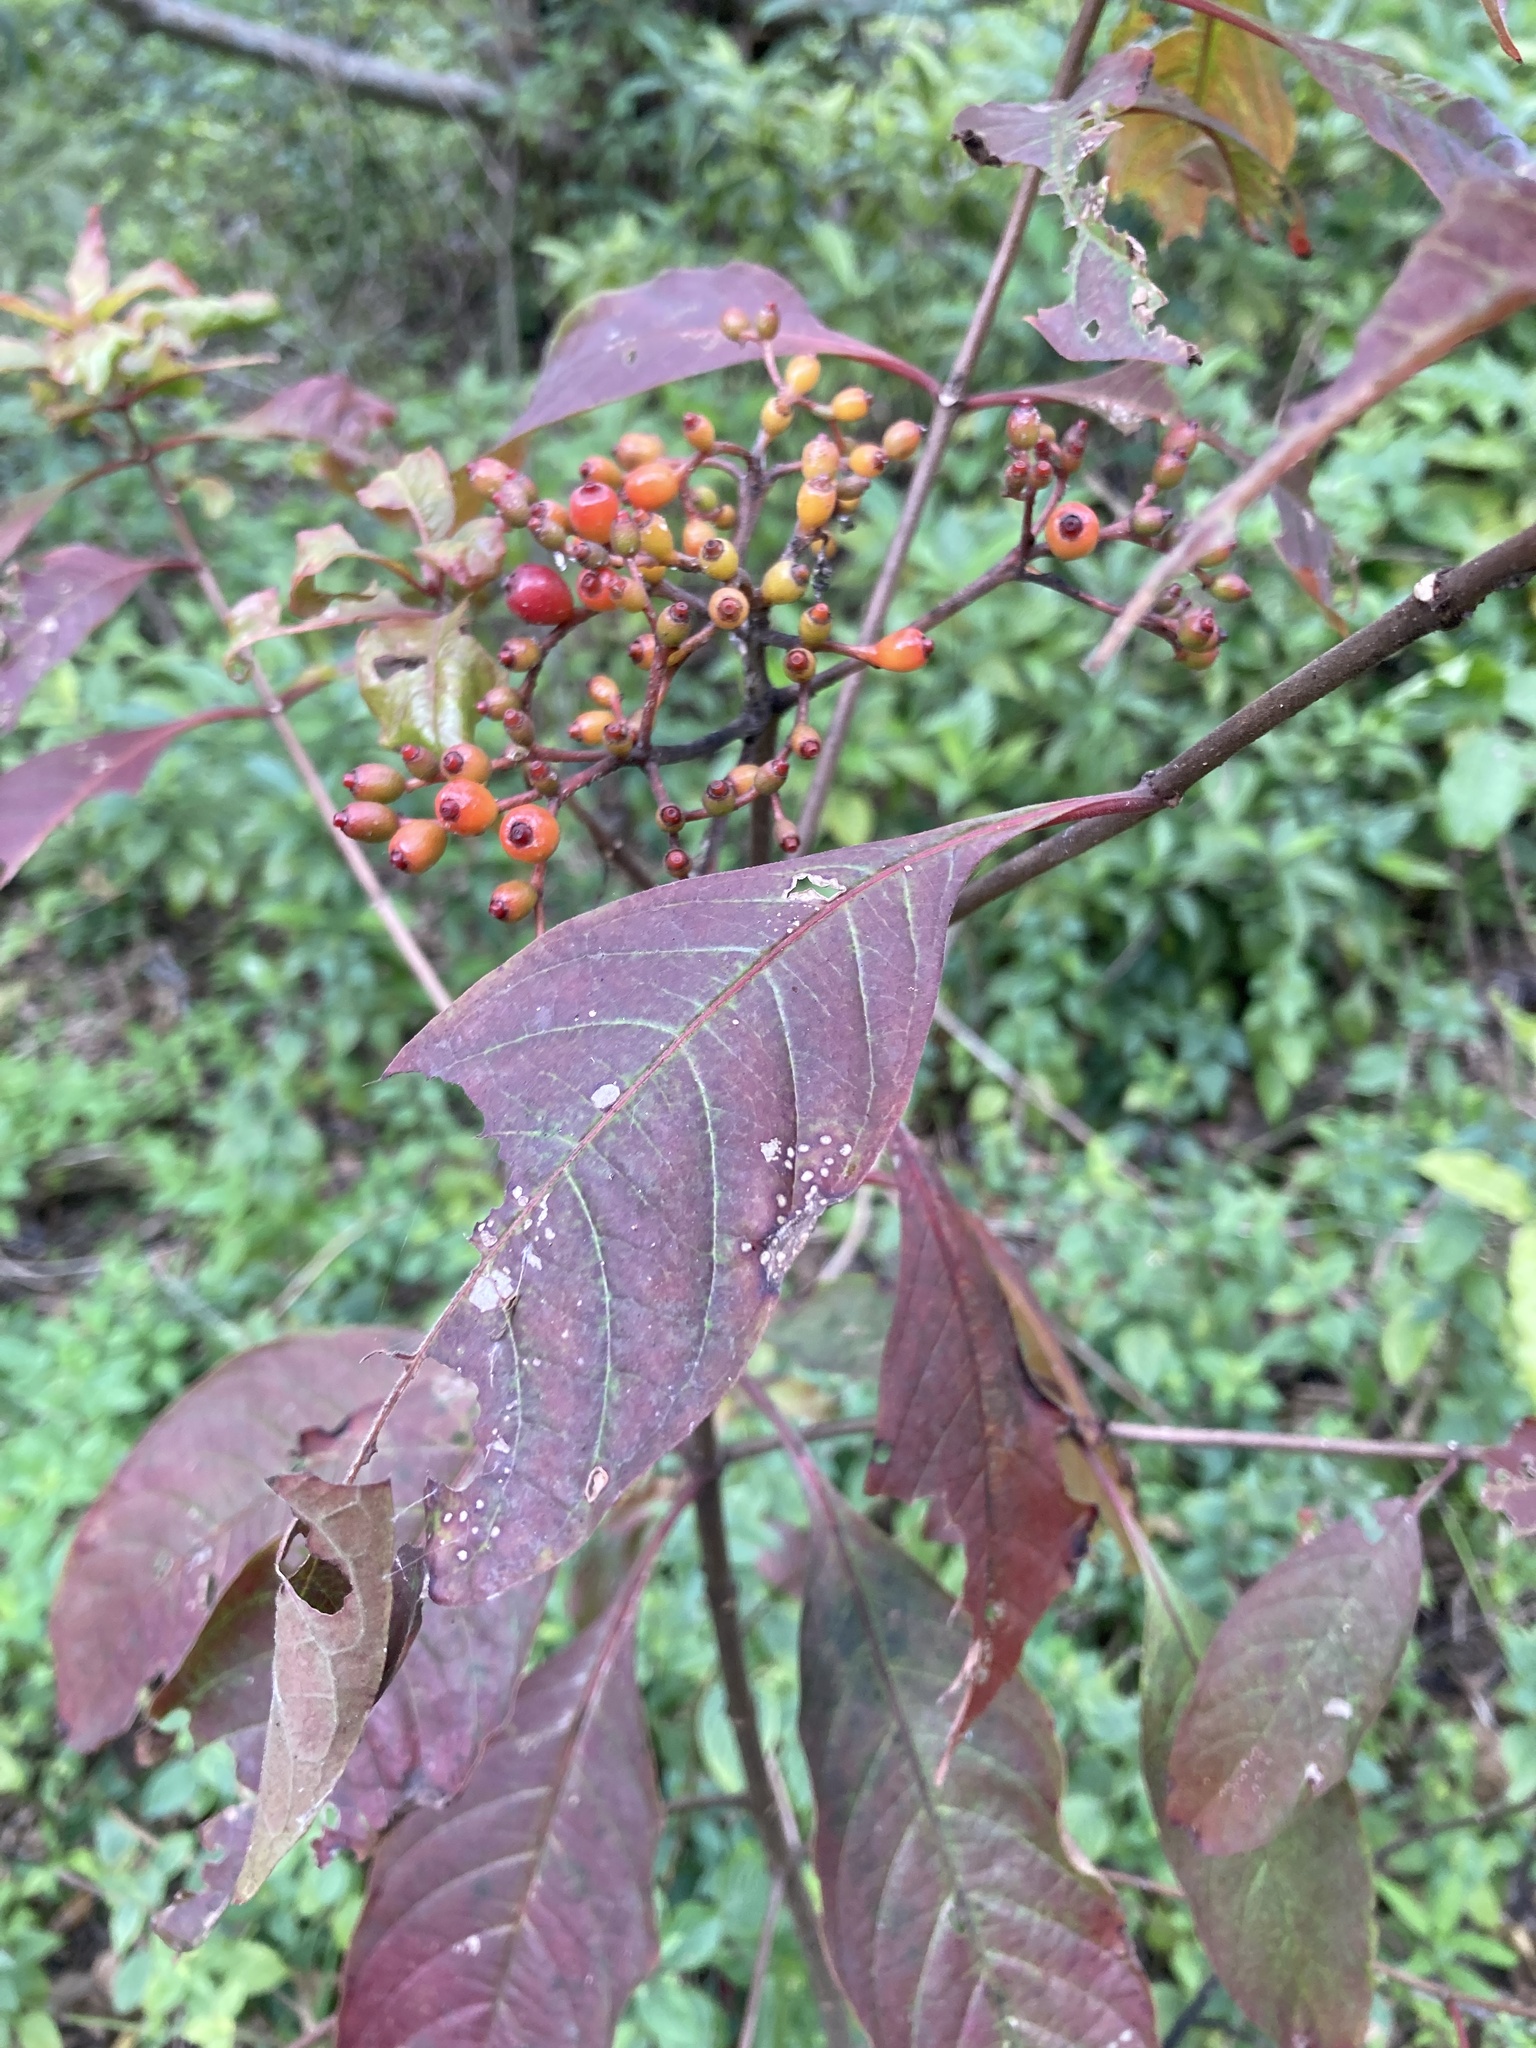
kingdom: Plantae
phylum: Tracheophyta
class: Magnoliopsida
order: Gentianales
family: Rubiaceae
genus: Hamelia
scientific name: Hamelia patens
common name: Redhead
